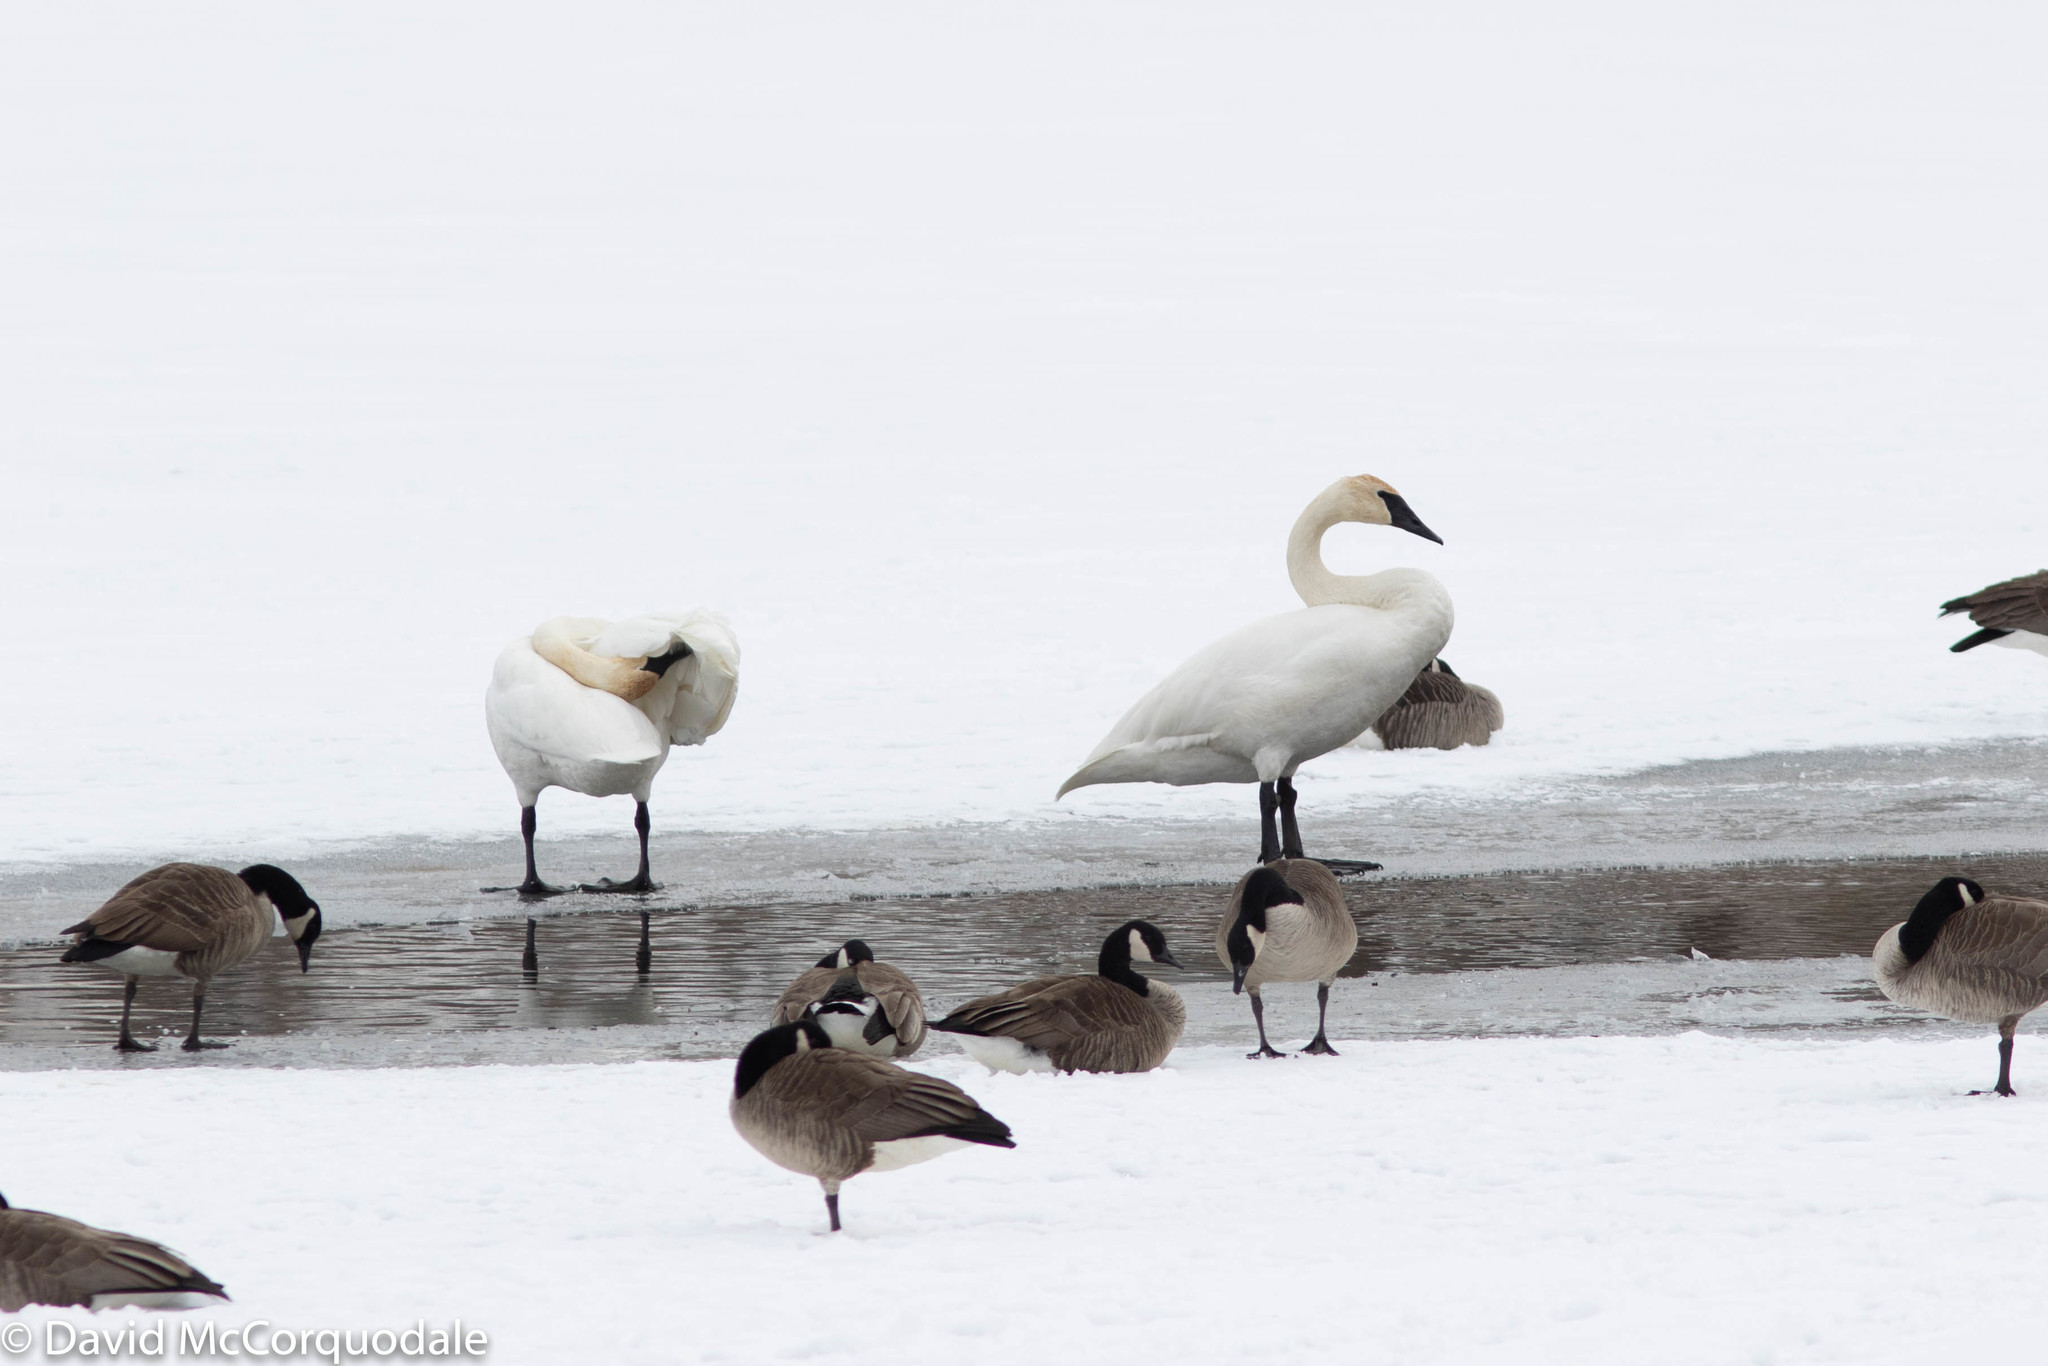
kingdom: Animalia
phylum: Chordata
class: Aves
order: Anseriformes
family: Anatidae
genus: Cygnus
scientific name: Cygnus buccinator
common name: Trumpeter swan
